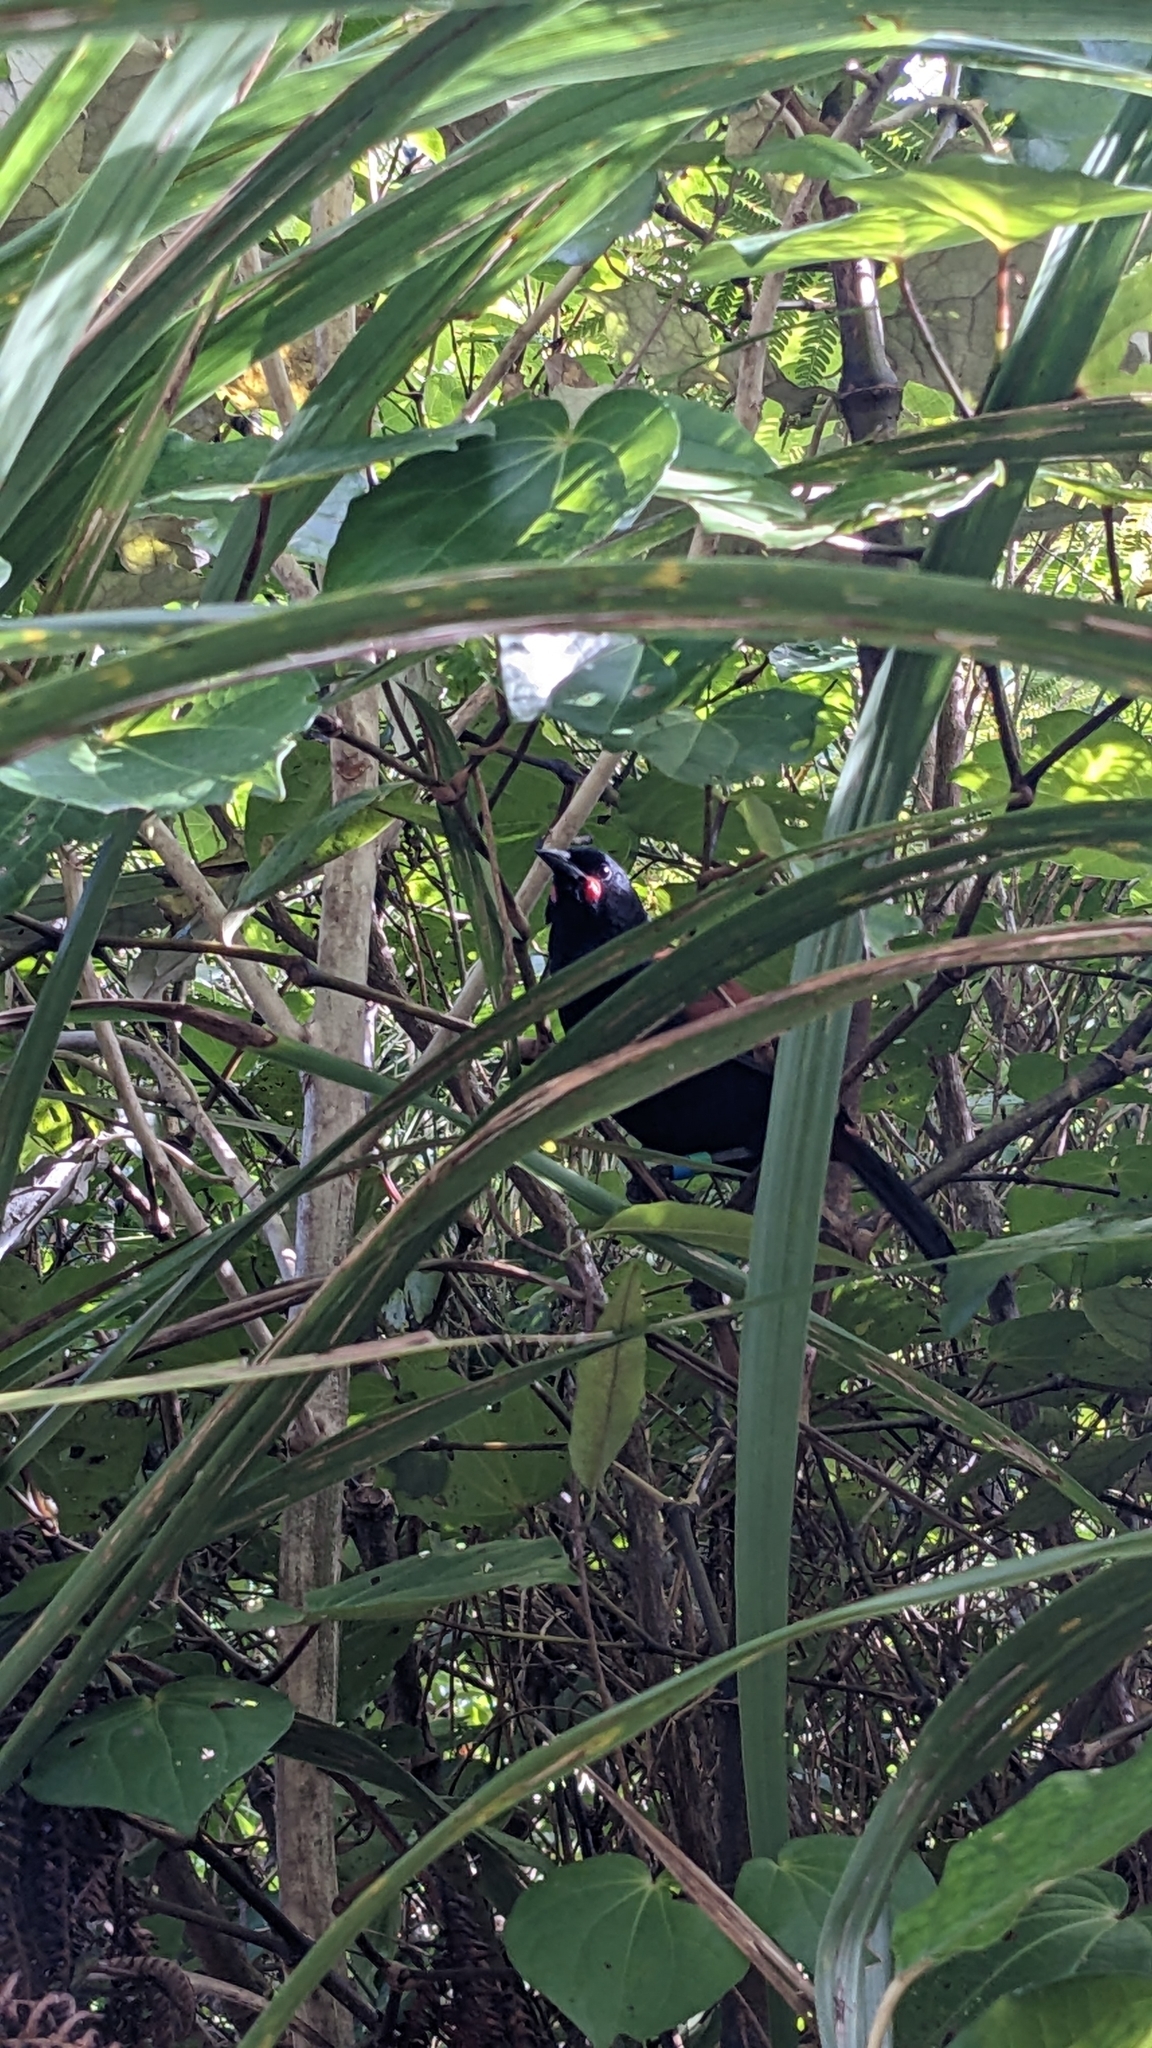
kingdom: Animalia
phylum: Chordata
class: Aves
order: Passeriformes
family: Callaeatidae
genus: Philesturnus
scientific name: Philesturnus carunculatus
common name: South island saddleback
